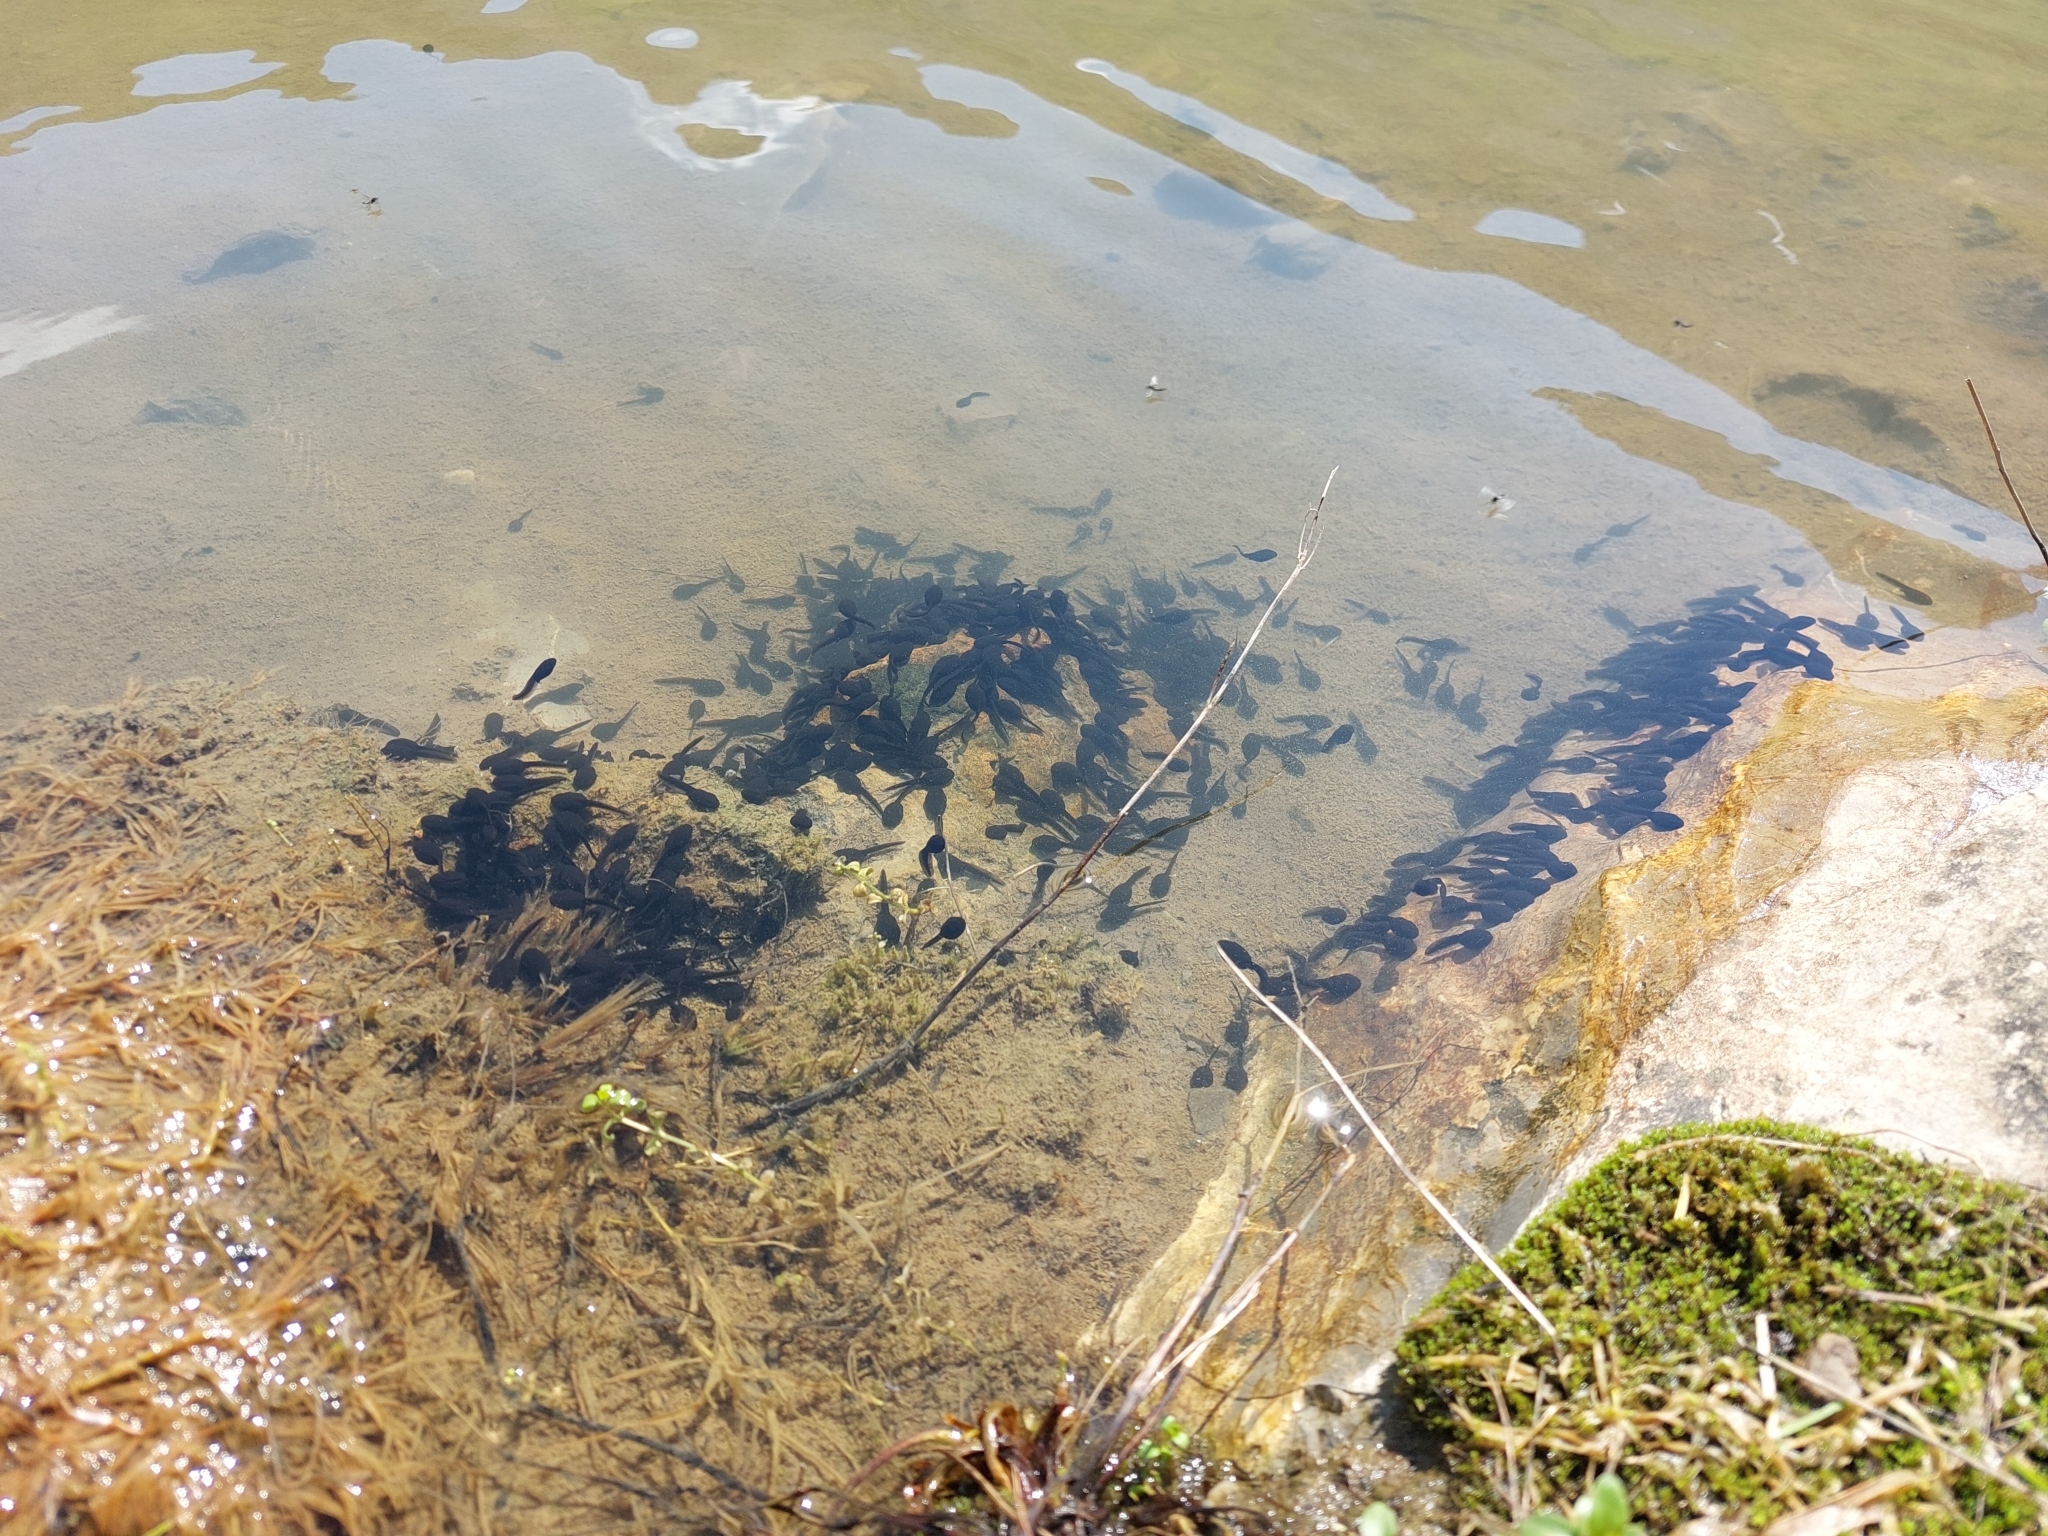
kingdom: Animalia
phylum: Chordata
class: Amphibia
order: Anura
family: Bufonidae
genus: Bufo
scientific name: Bufo bufo
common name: Common toad
